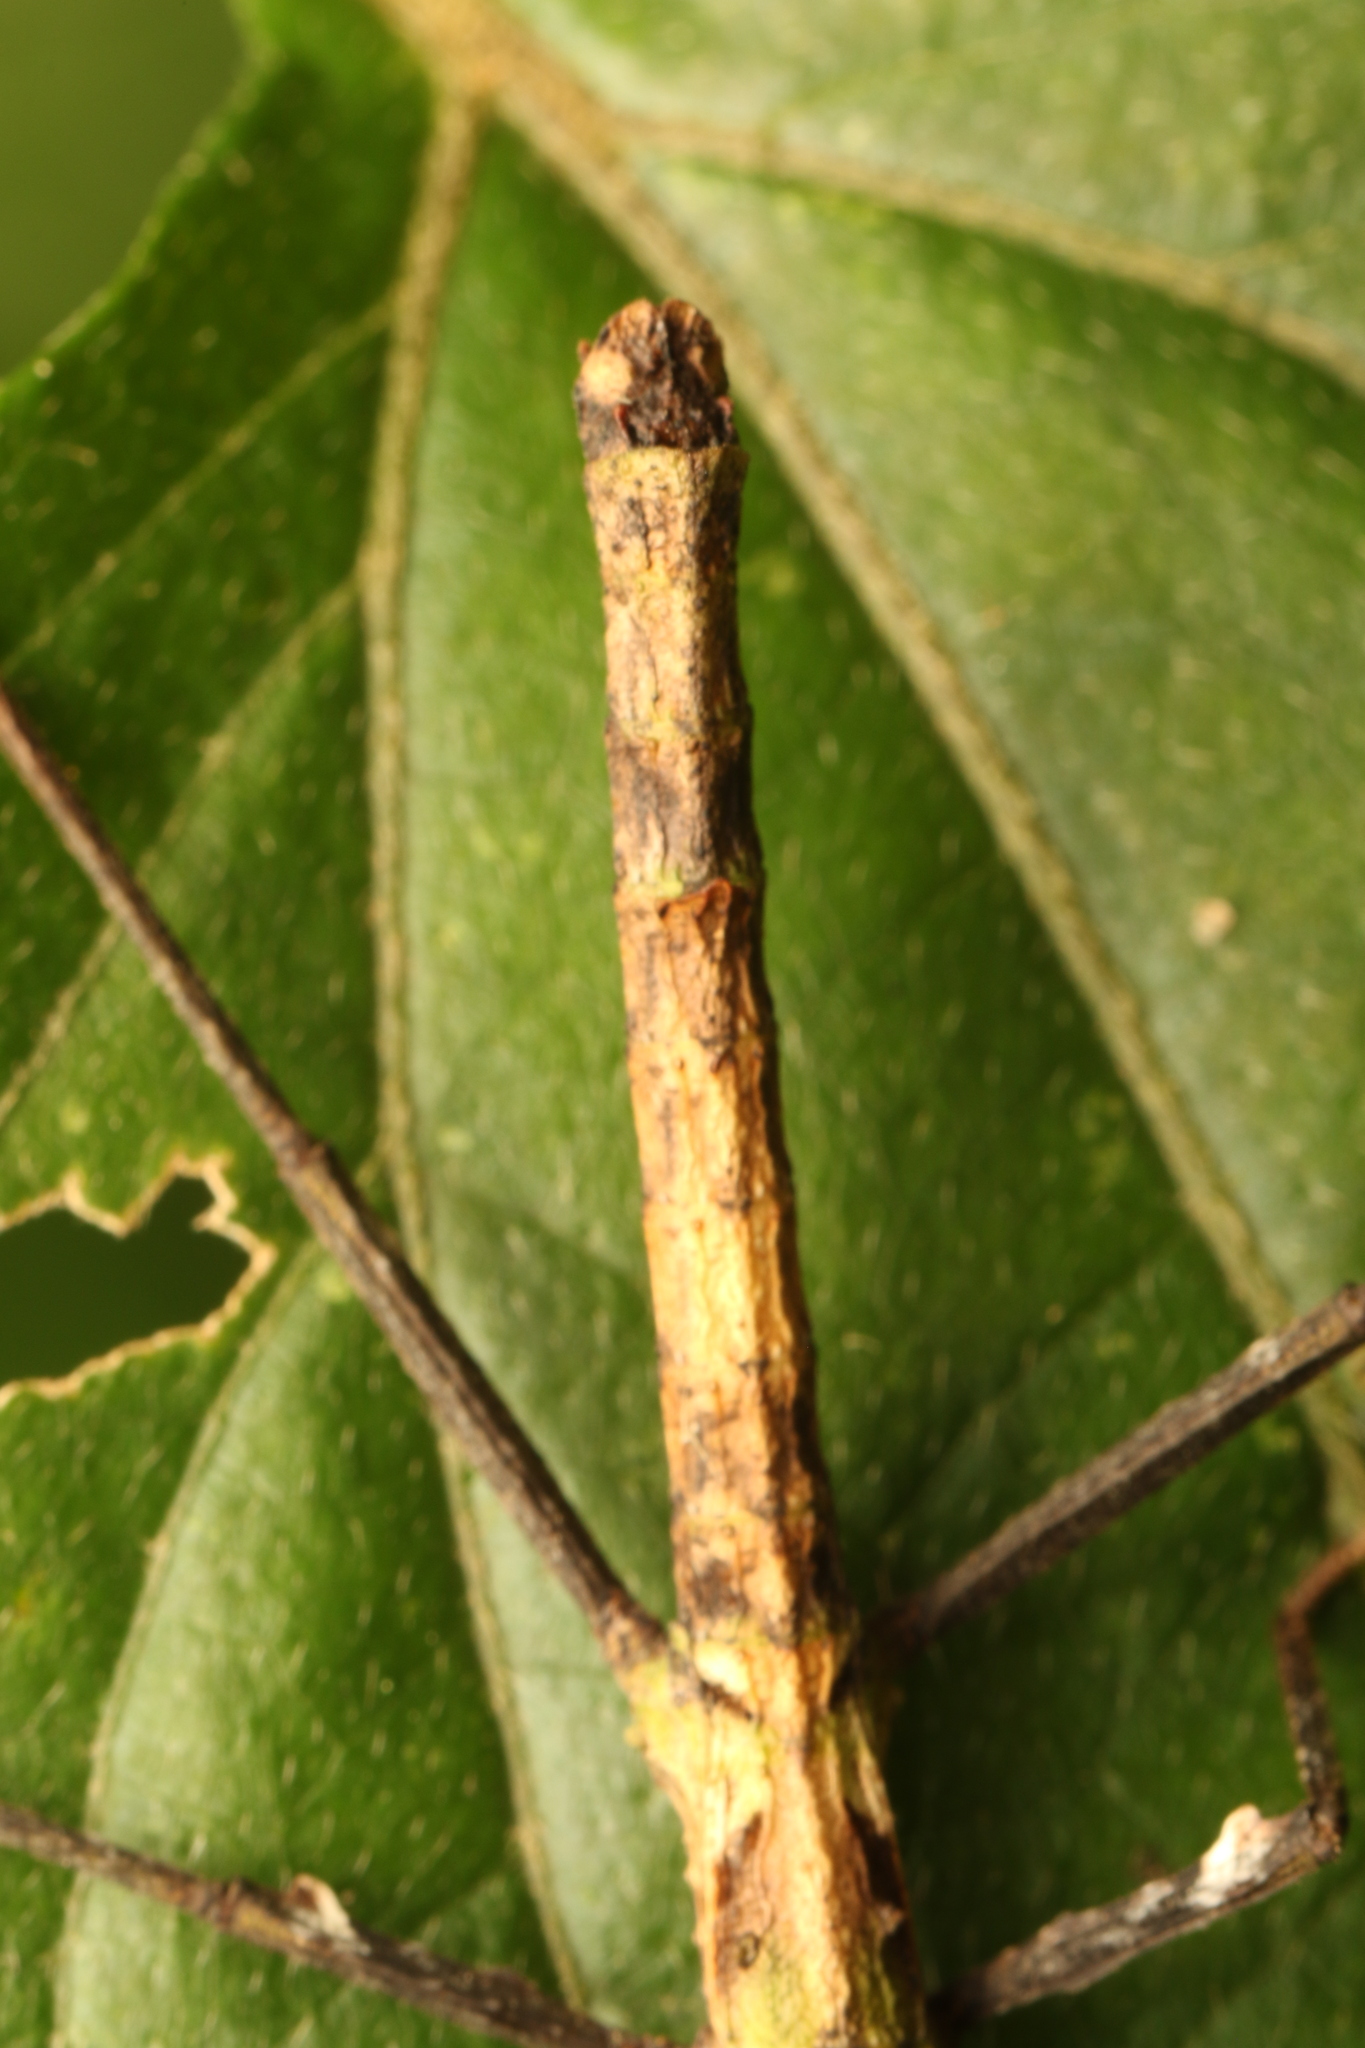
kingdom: Animalia
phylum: Arthropoda
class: Insecta
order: Phasmida
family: Heteronemiidae
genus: Pygirhynchus
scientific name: Pygirhynchus toledopizai
